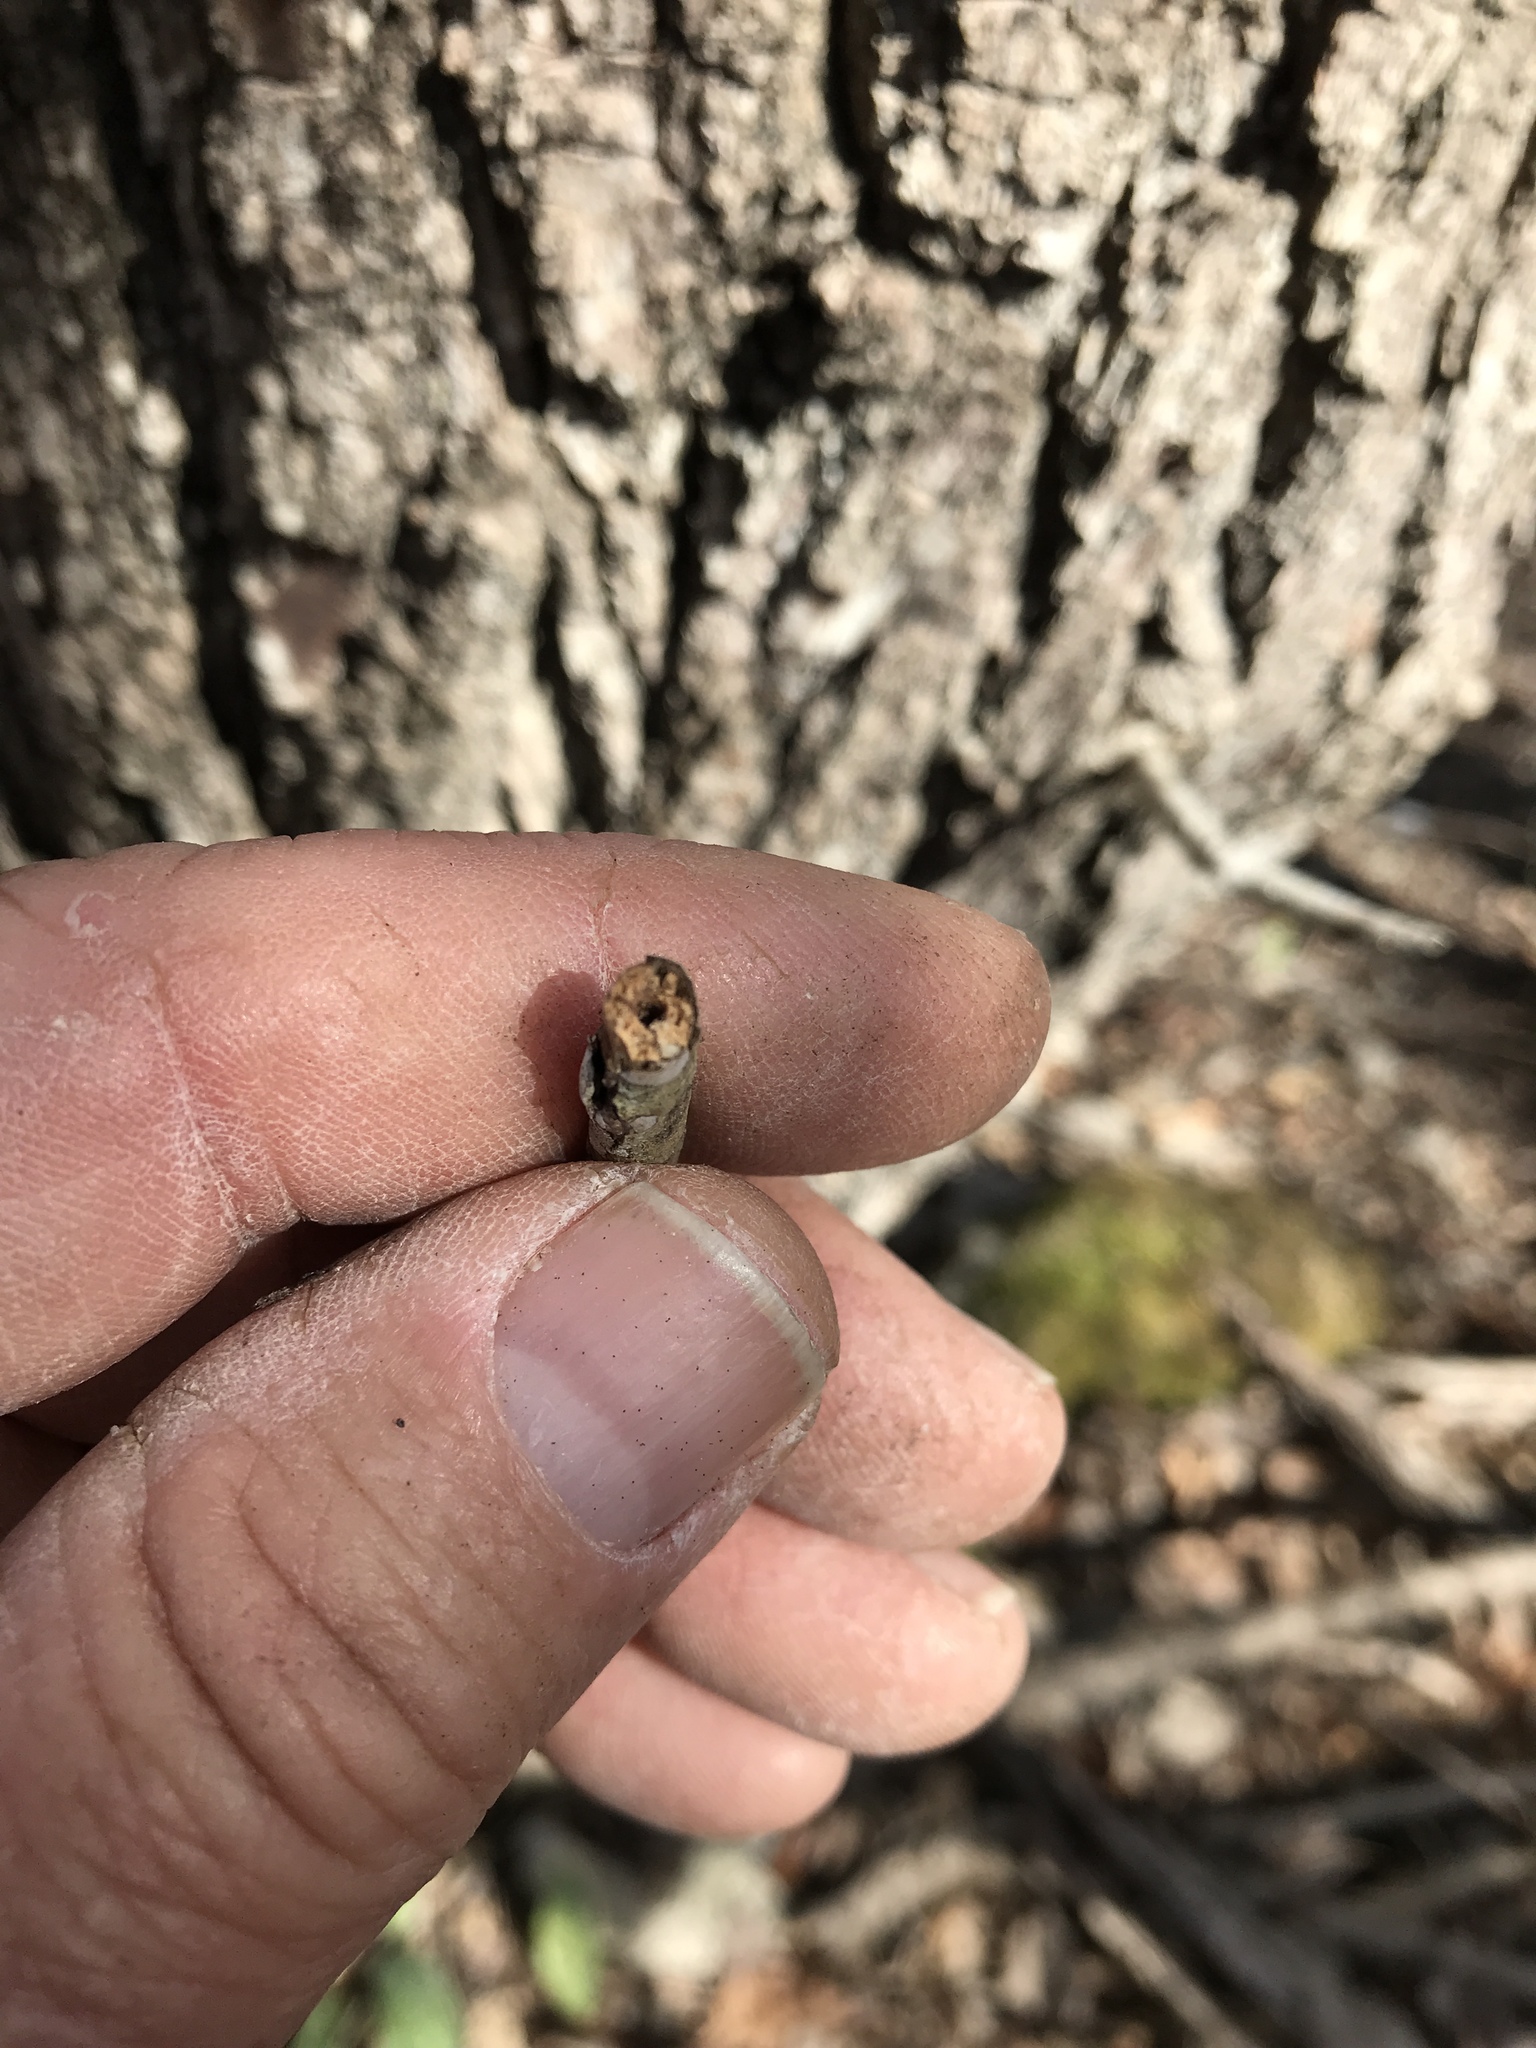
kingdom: Plantae
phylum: Tracheophyta
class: Magnoliopsida
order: Fagales
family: Juglandaceae
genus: Juglans
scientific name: Juglans nigra
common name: Black walnut
